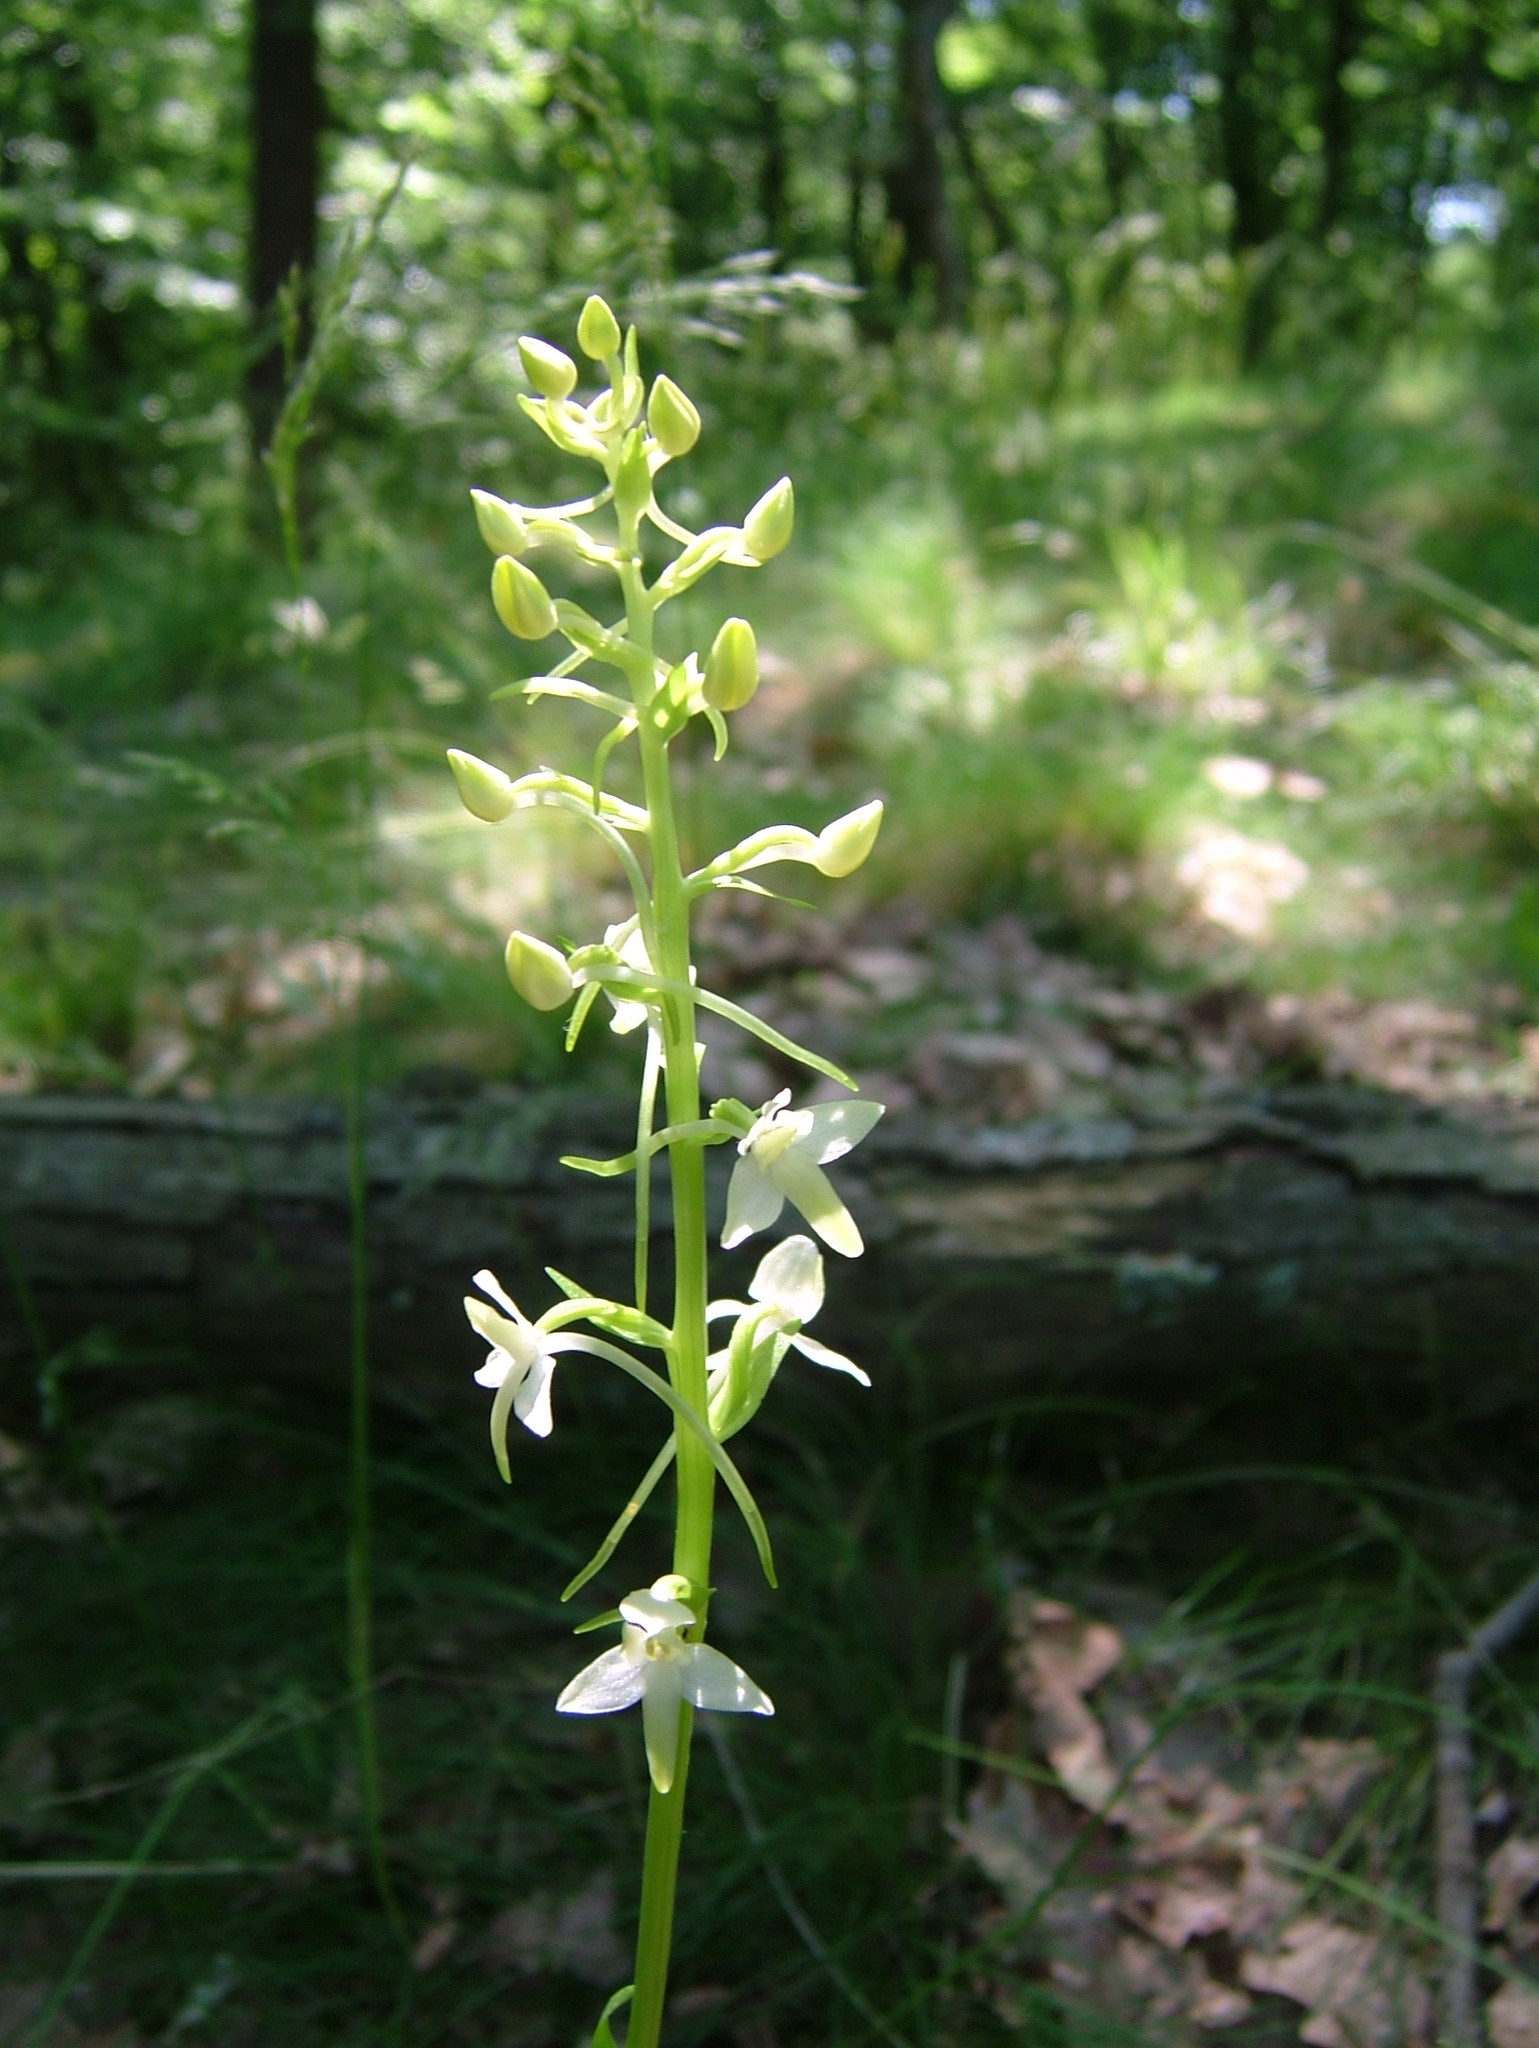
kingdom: Plantae
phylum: Tracheophyta
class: Liliopsida
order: Asparagales
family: Orchidaceae
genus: Platanthera
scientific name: Platanthera bifolia
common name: Lesser butterfly-orchid
